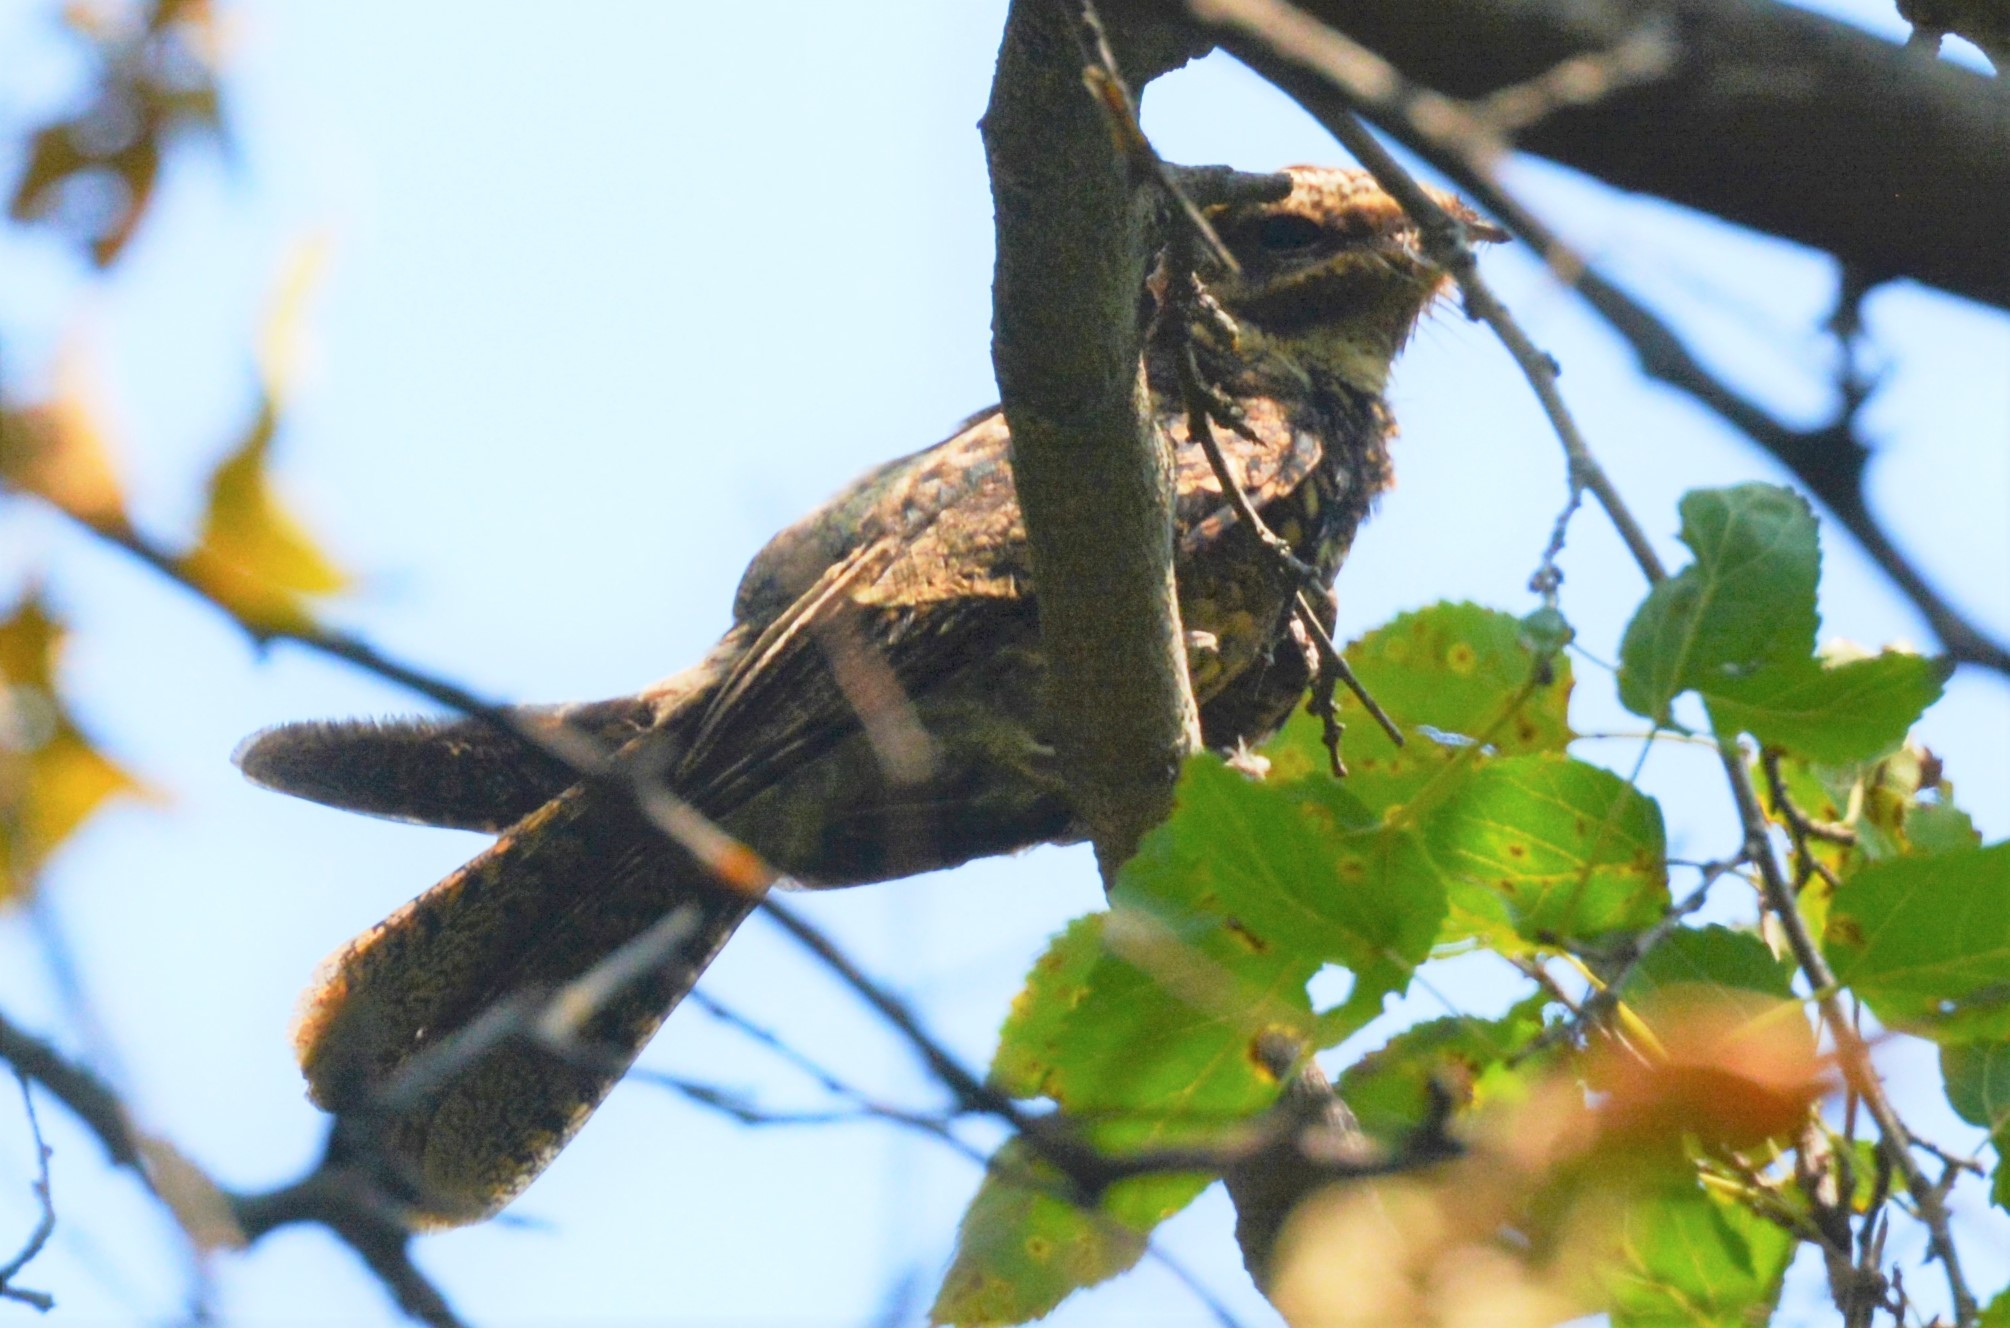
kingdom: Animalia
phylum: Chordata
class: Aves
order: Caprimulgiformes
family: Caprimulgidae
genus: Antrostomus
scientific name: Antrostomus carolinensis
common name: Chuck-will's-widow
